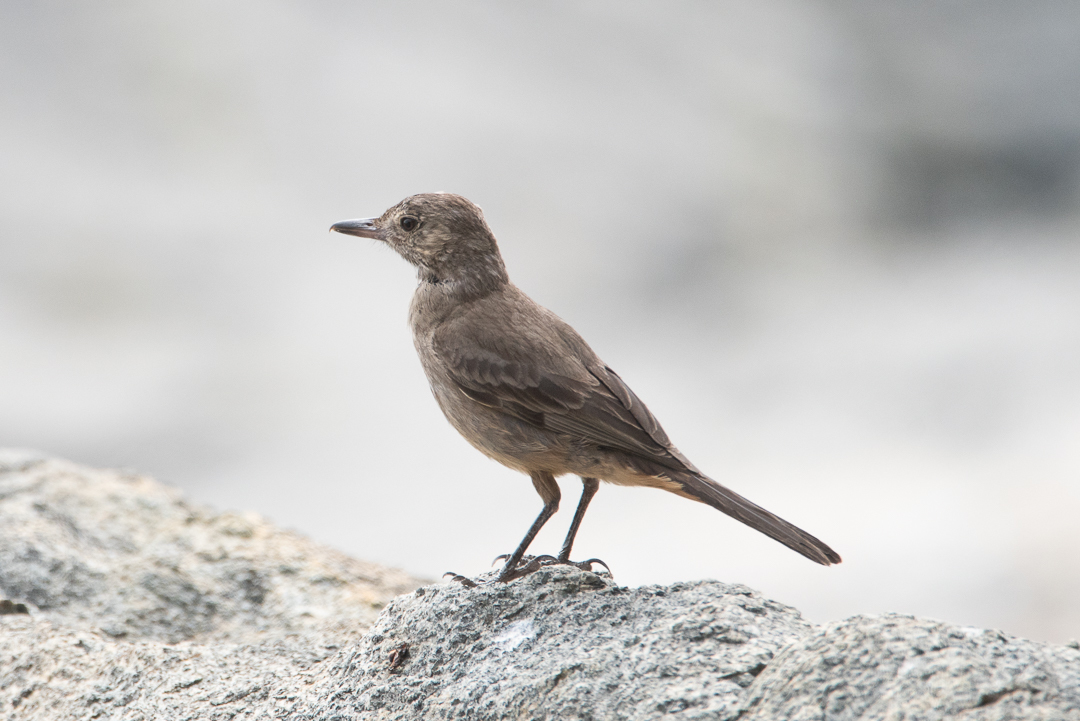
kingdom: Animalia
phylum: Chordata
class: Aves
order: Passeriformes
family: Tyrannidae
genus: Agriornis
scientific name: Agriornis lividus
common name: Great shrike-tyrant
